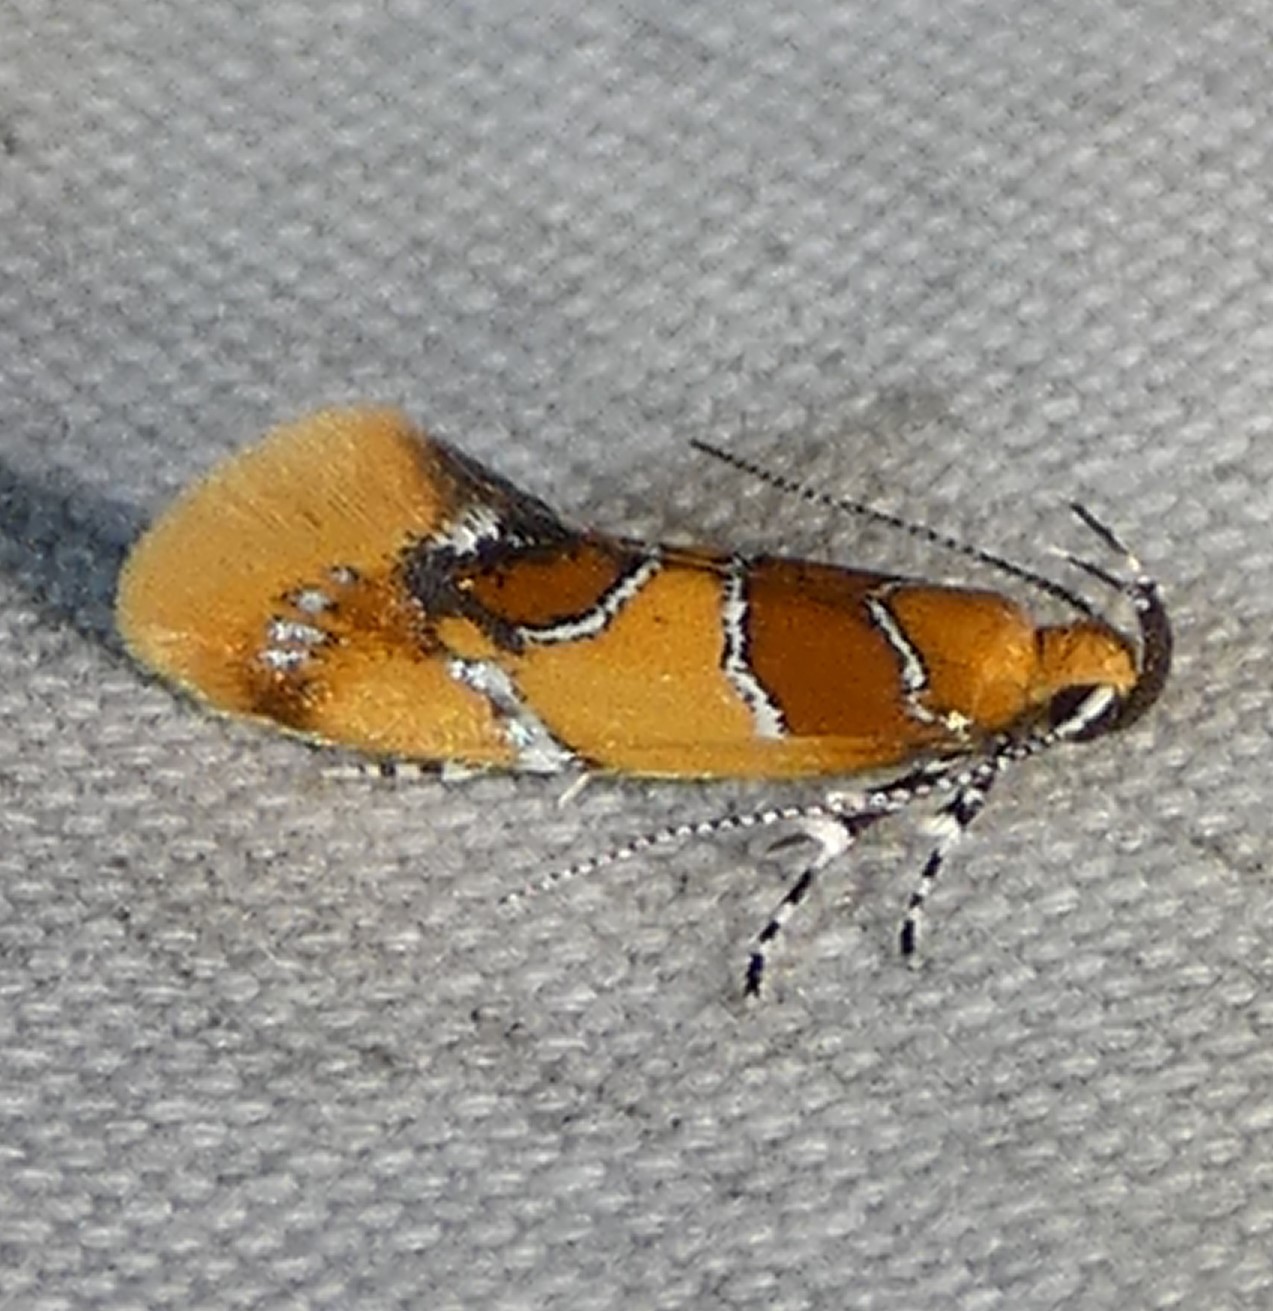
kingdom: Animalia
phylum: Arthropoda
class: Insecta
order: Lepidoptera
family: Oecophoridae
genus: Callima
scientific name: Callima argenticinctella
